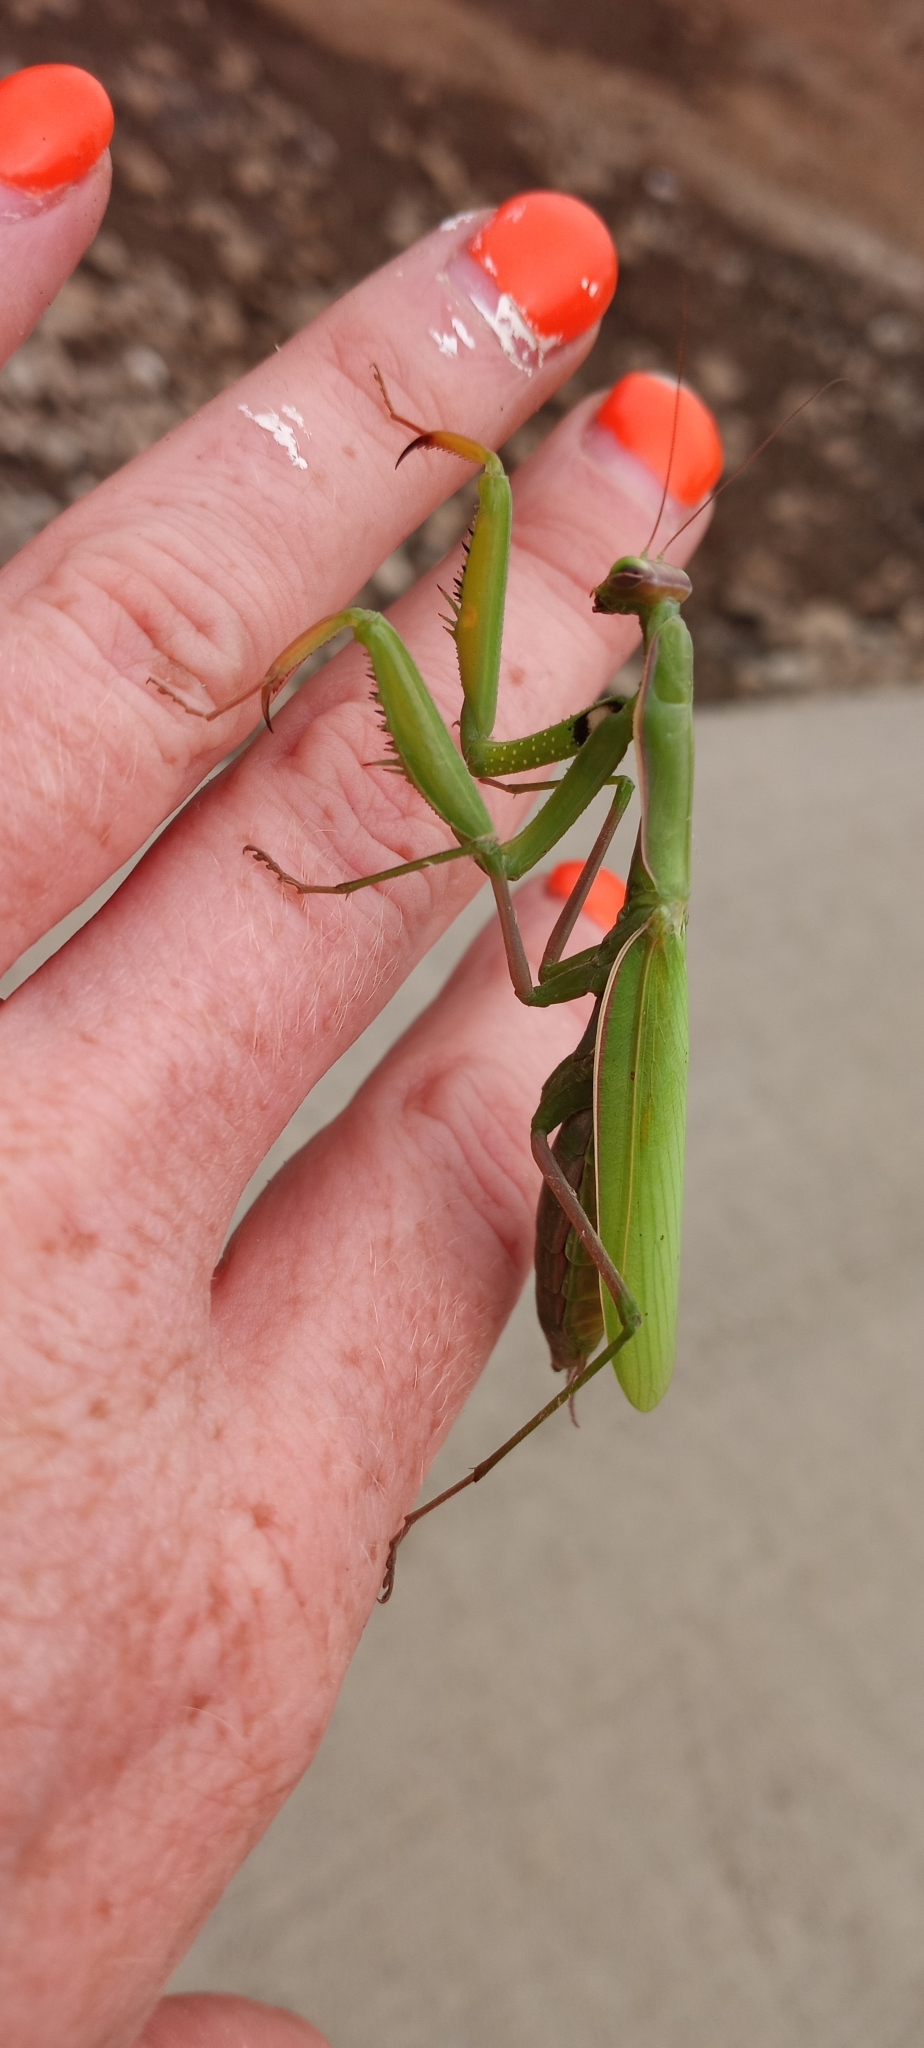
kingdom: Animalia
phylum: Arthropoda
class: Insecta
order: Mantodea
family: Mantidae
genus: Mantis
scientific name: Mantis religiosa
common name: Praying mantis
